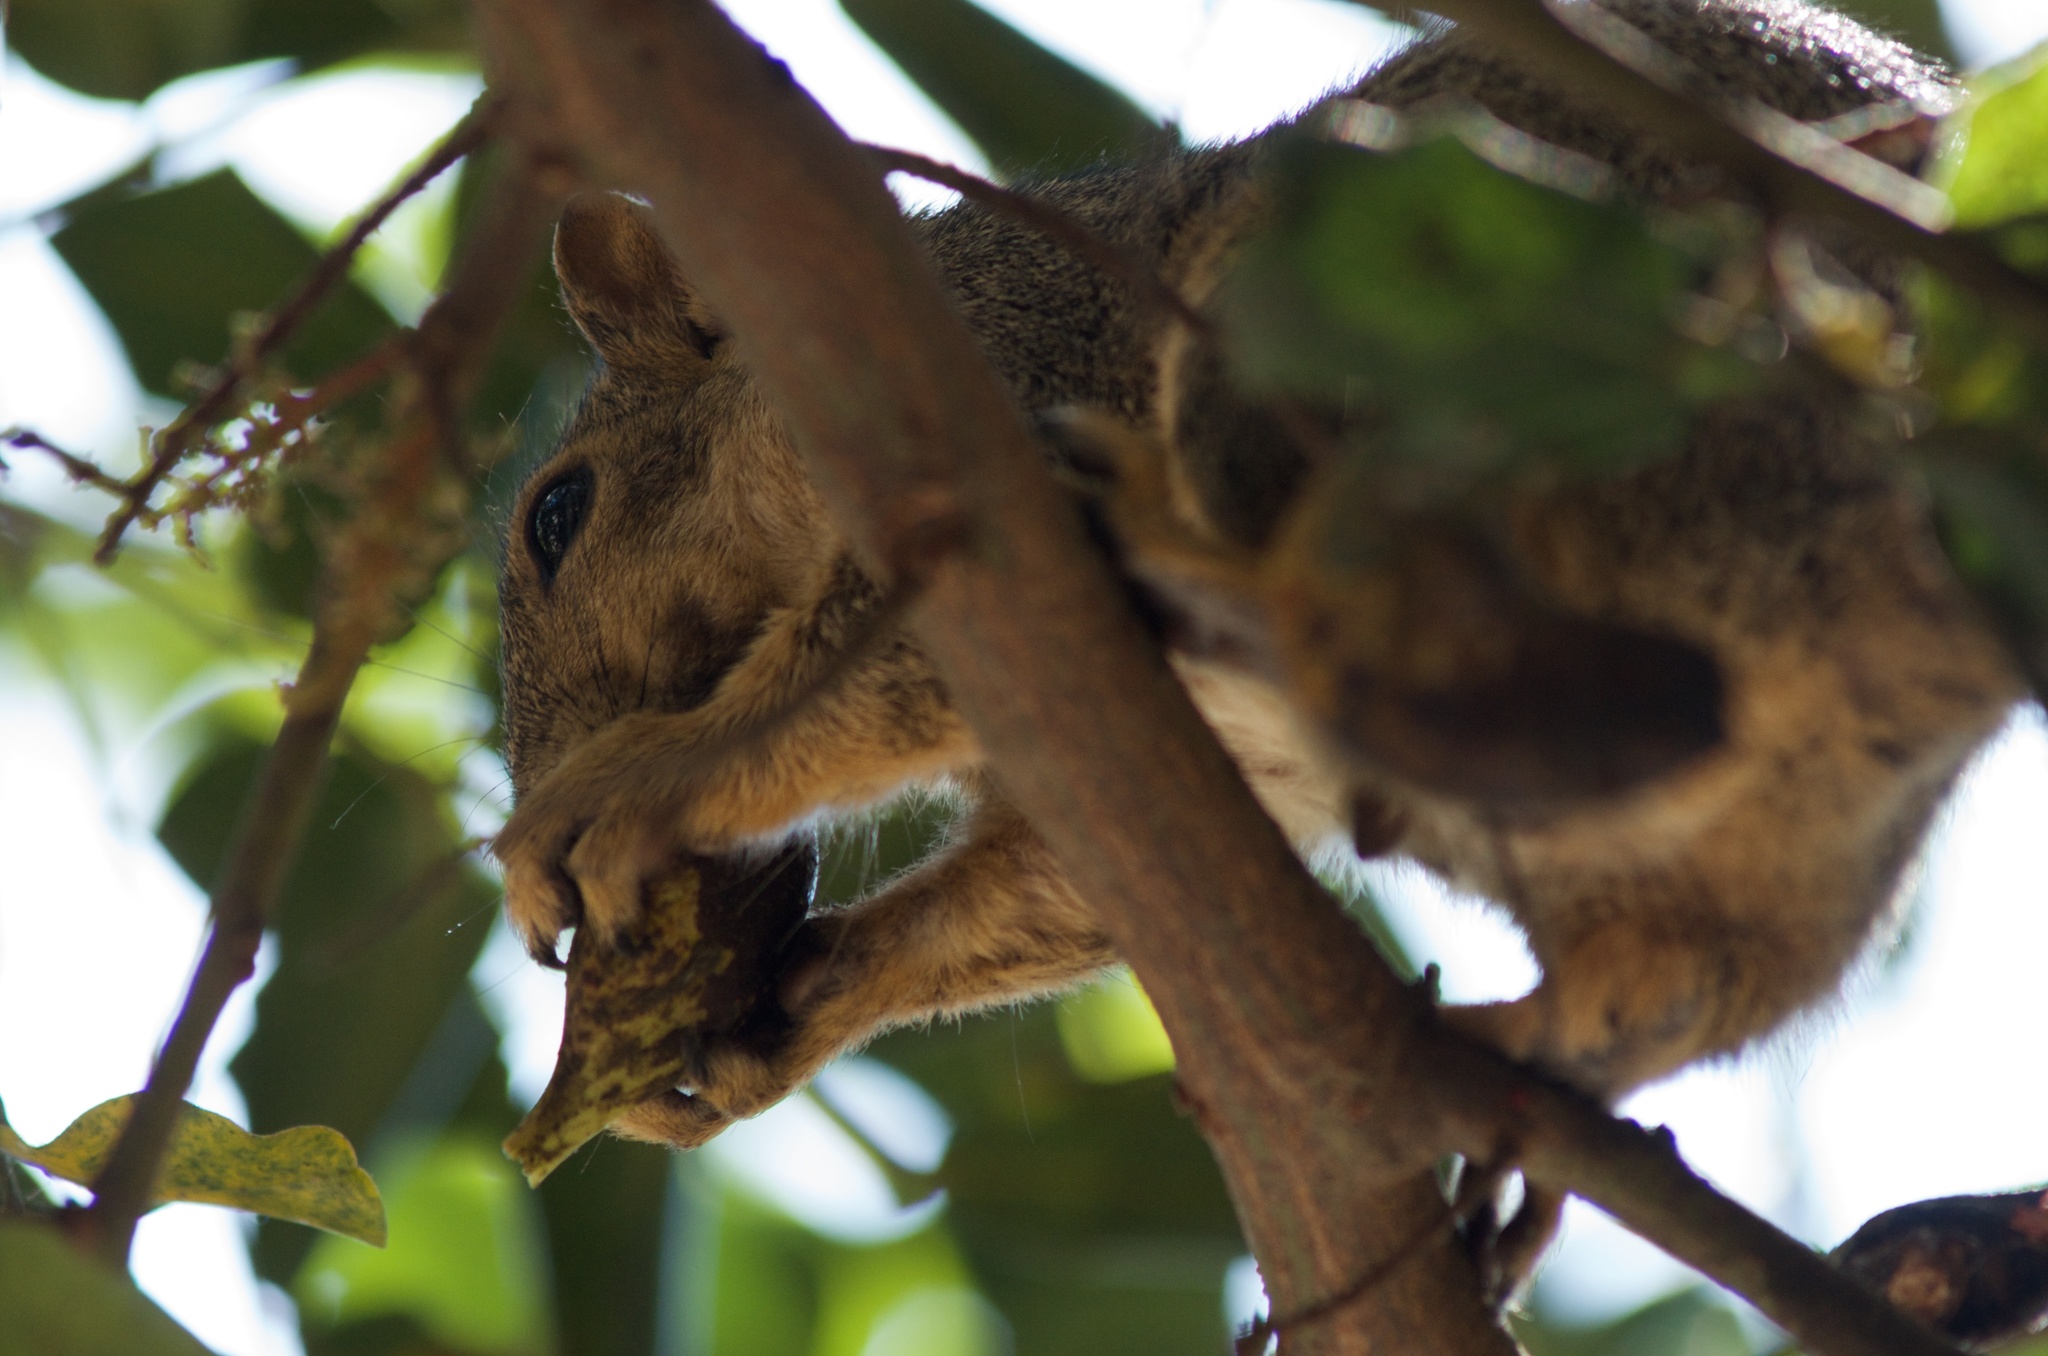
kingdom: Animalia
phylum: Chordata
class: Mammalia
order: Rodentia
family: Sciuridae
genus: Sciurus
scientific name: Sciurus niger
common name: Fox squirrel
